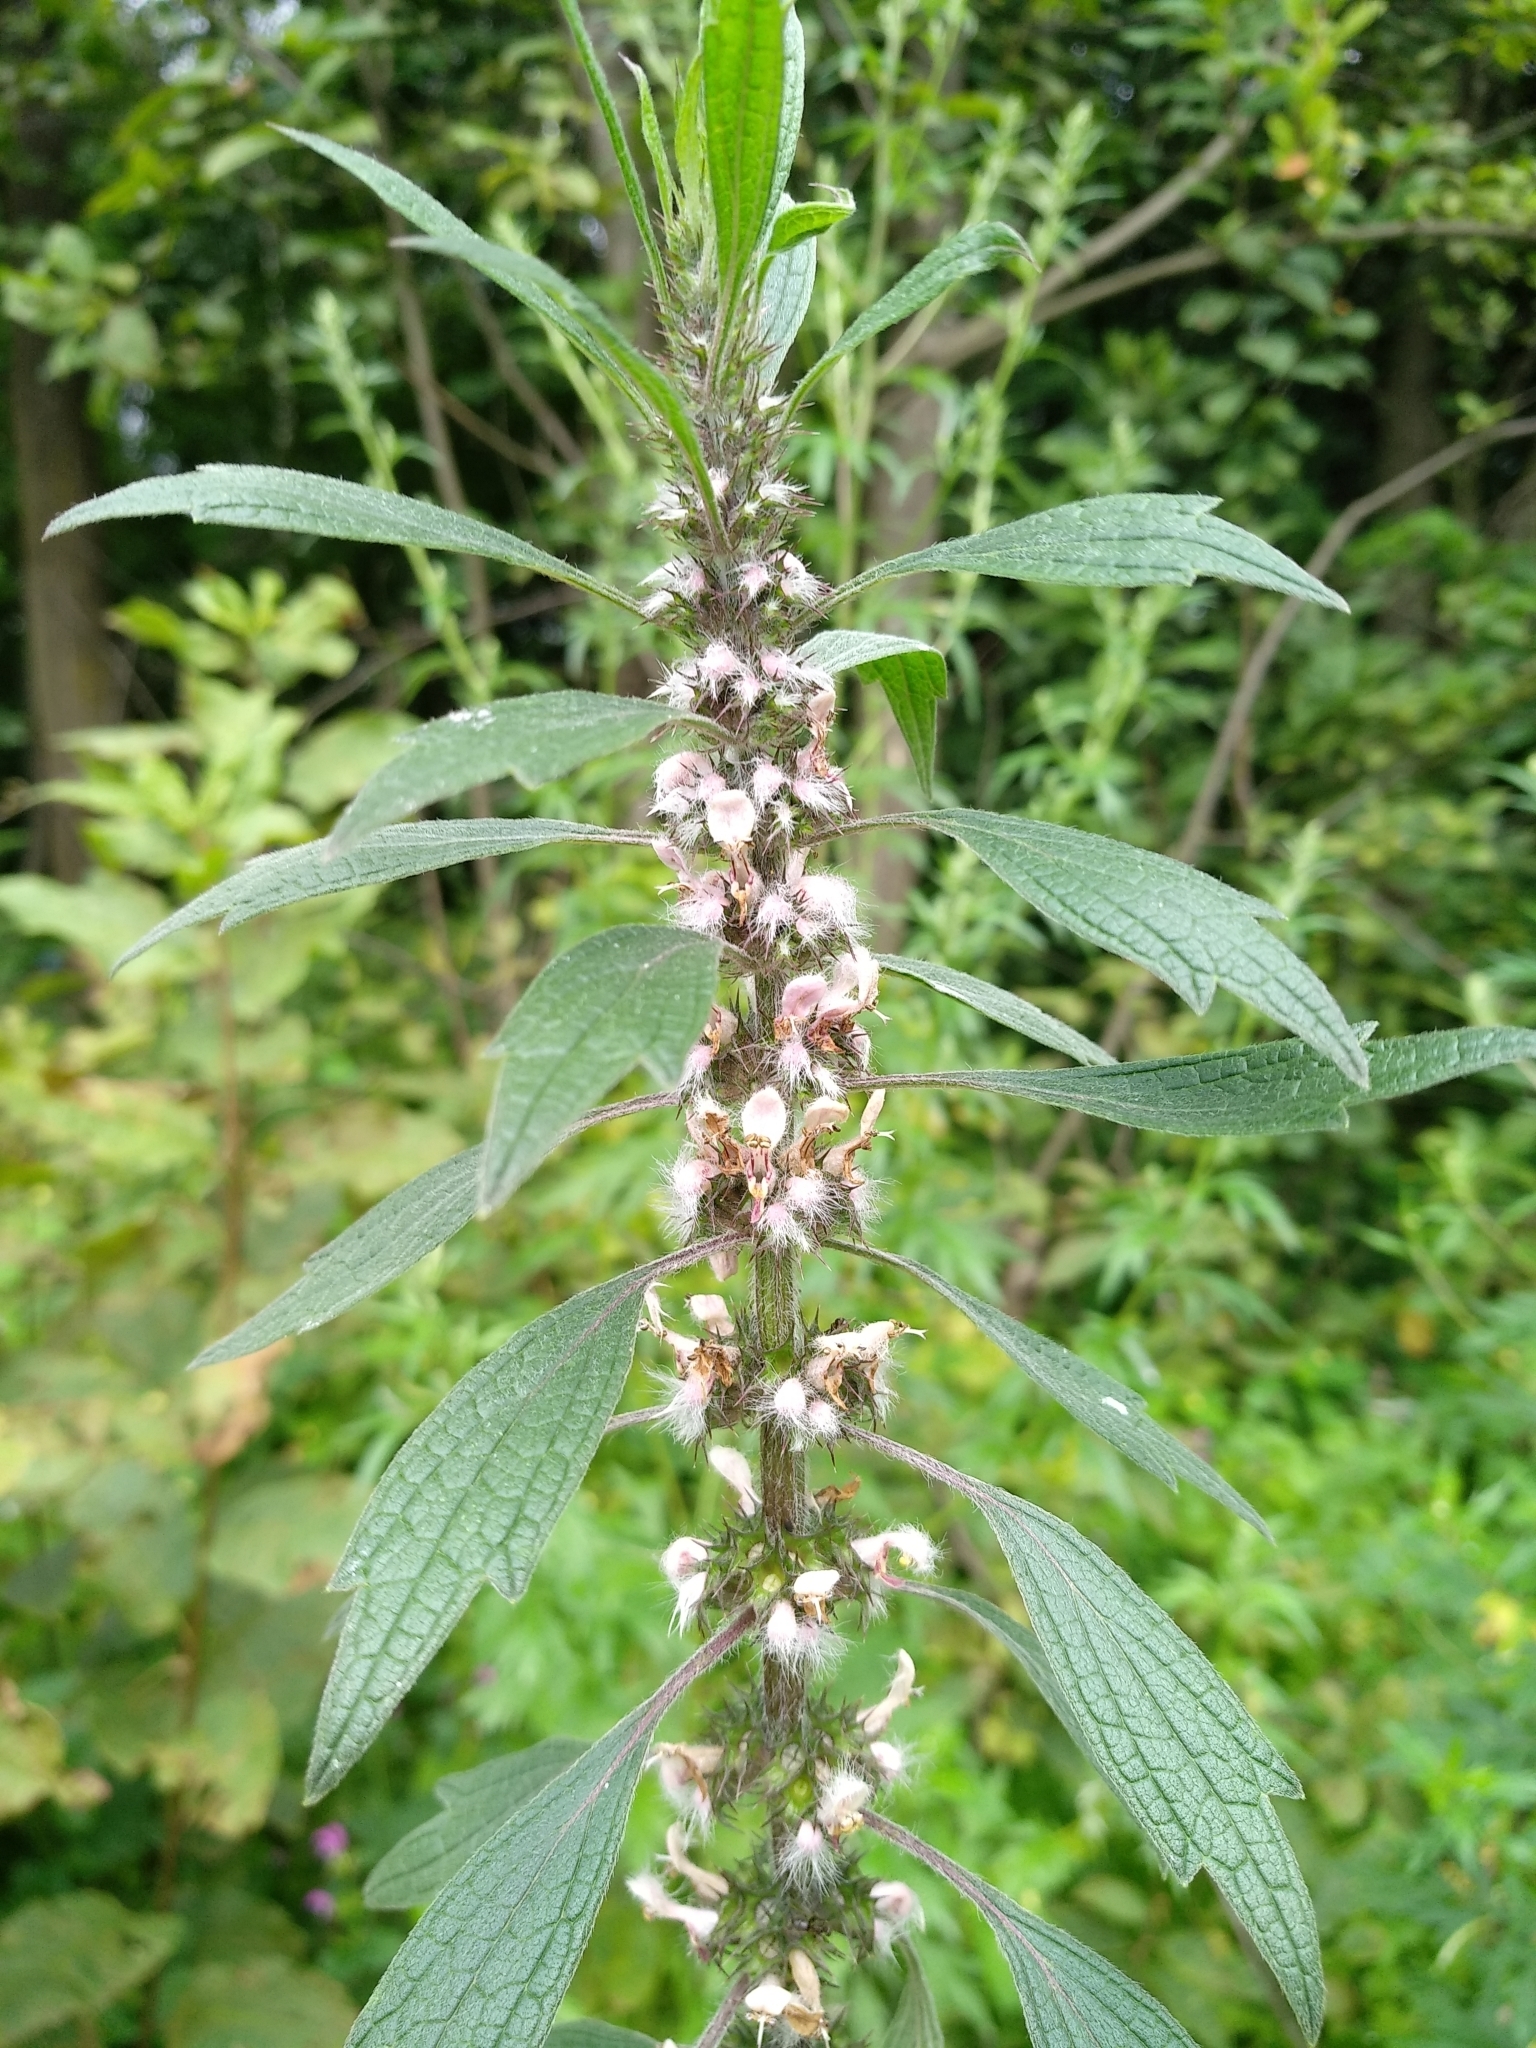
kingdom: Plantae
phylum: Tracheophyta
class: Magnoliopsida
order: Lamiales
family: Lamiaceae
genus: Leonurus
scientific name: Leonurus quinquelobatus
